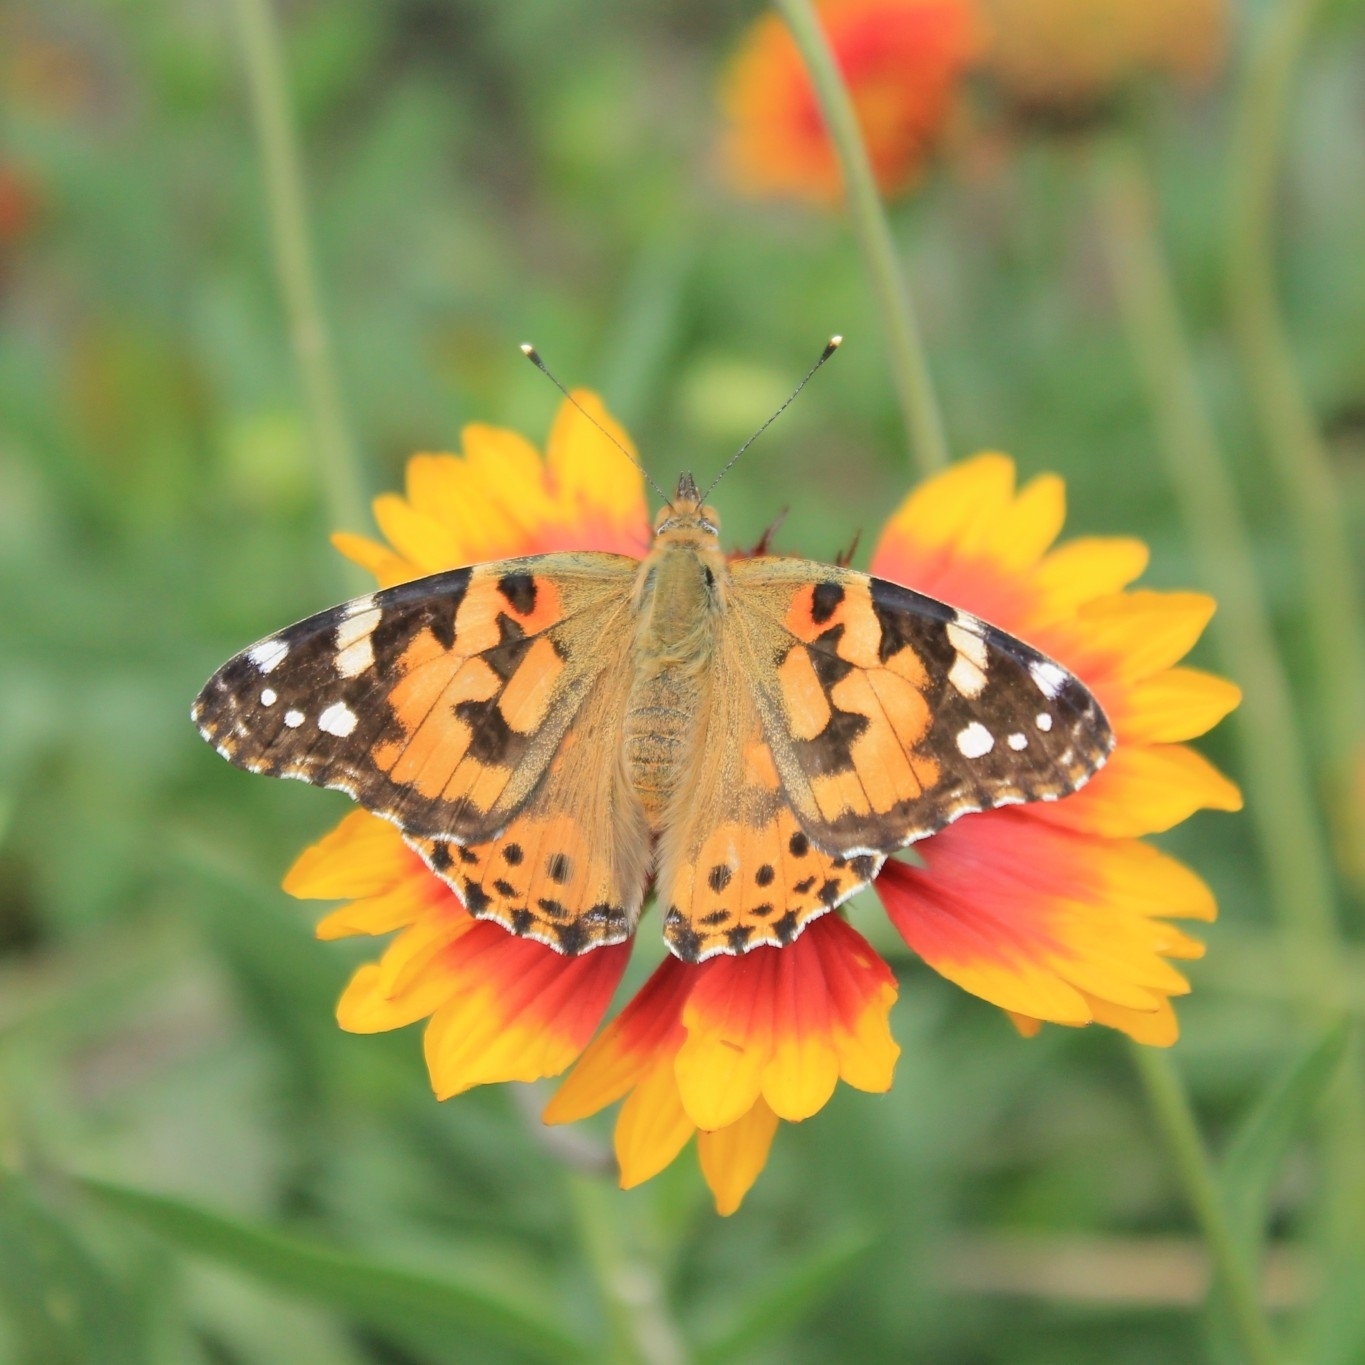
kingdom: Animalia
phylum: Arthropoda
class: Insecta
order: Lepidoptera
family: Nymphalidae
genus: Vanessa
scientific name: Vanessa cardui
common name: Painted lady
